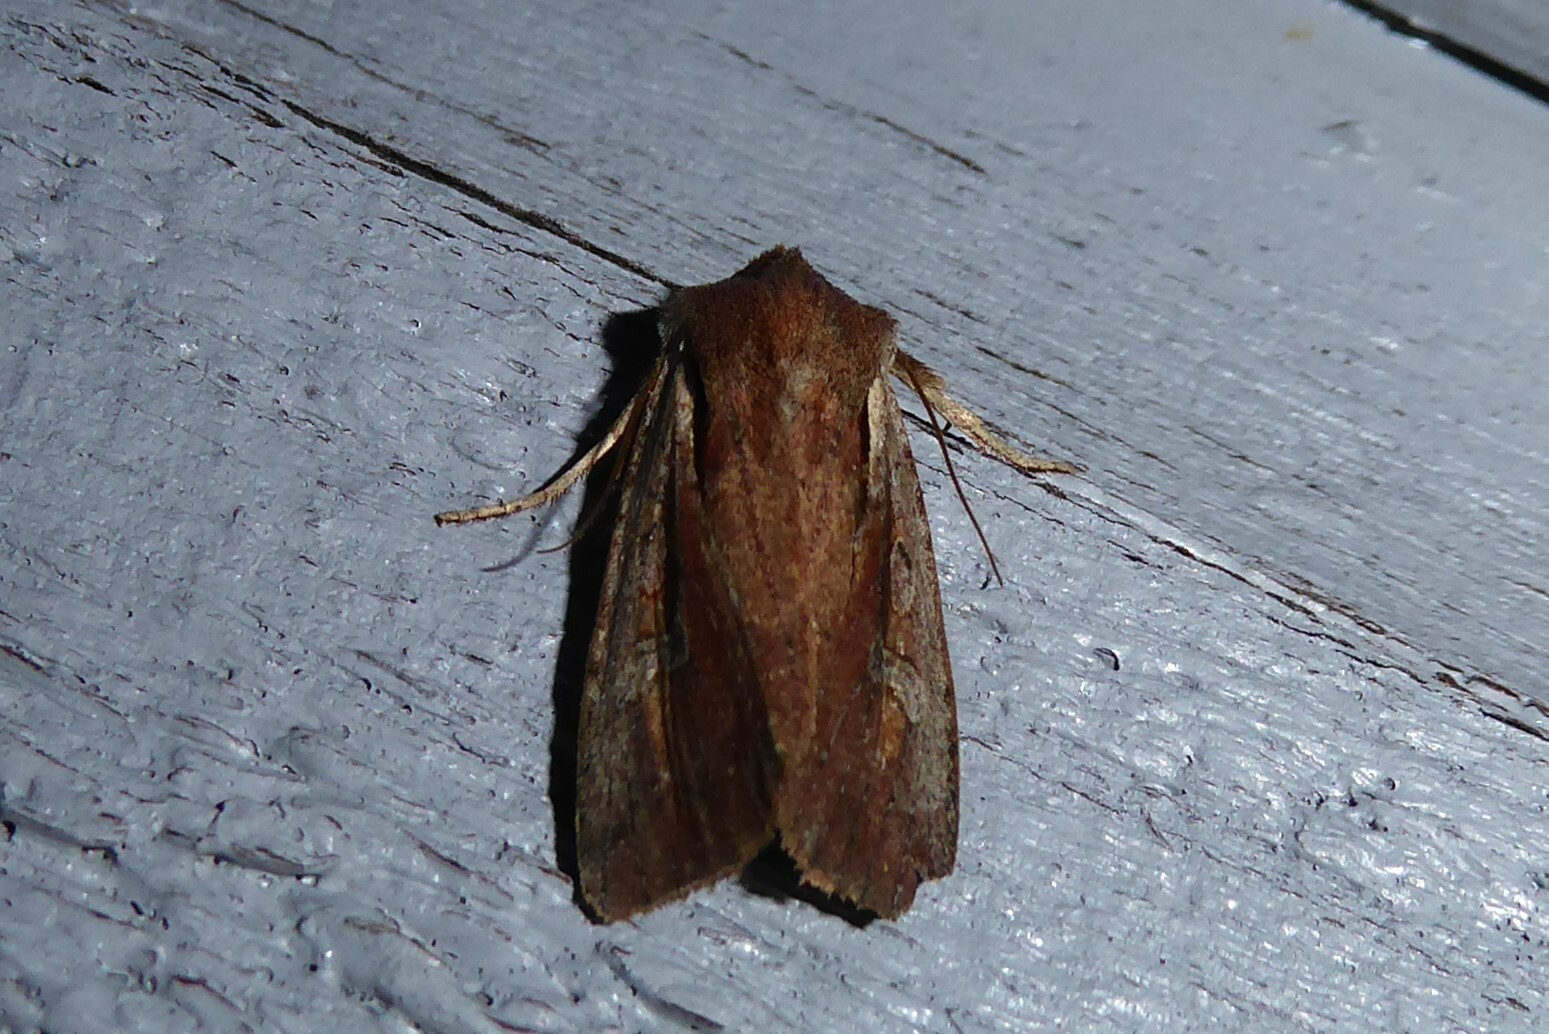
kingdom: Animalia
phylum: Arthropoda
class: Insecta
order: Lepidoptera
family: Noctuidae
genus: Ichneutica
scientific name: Ichneutica atristriga
